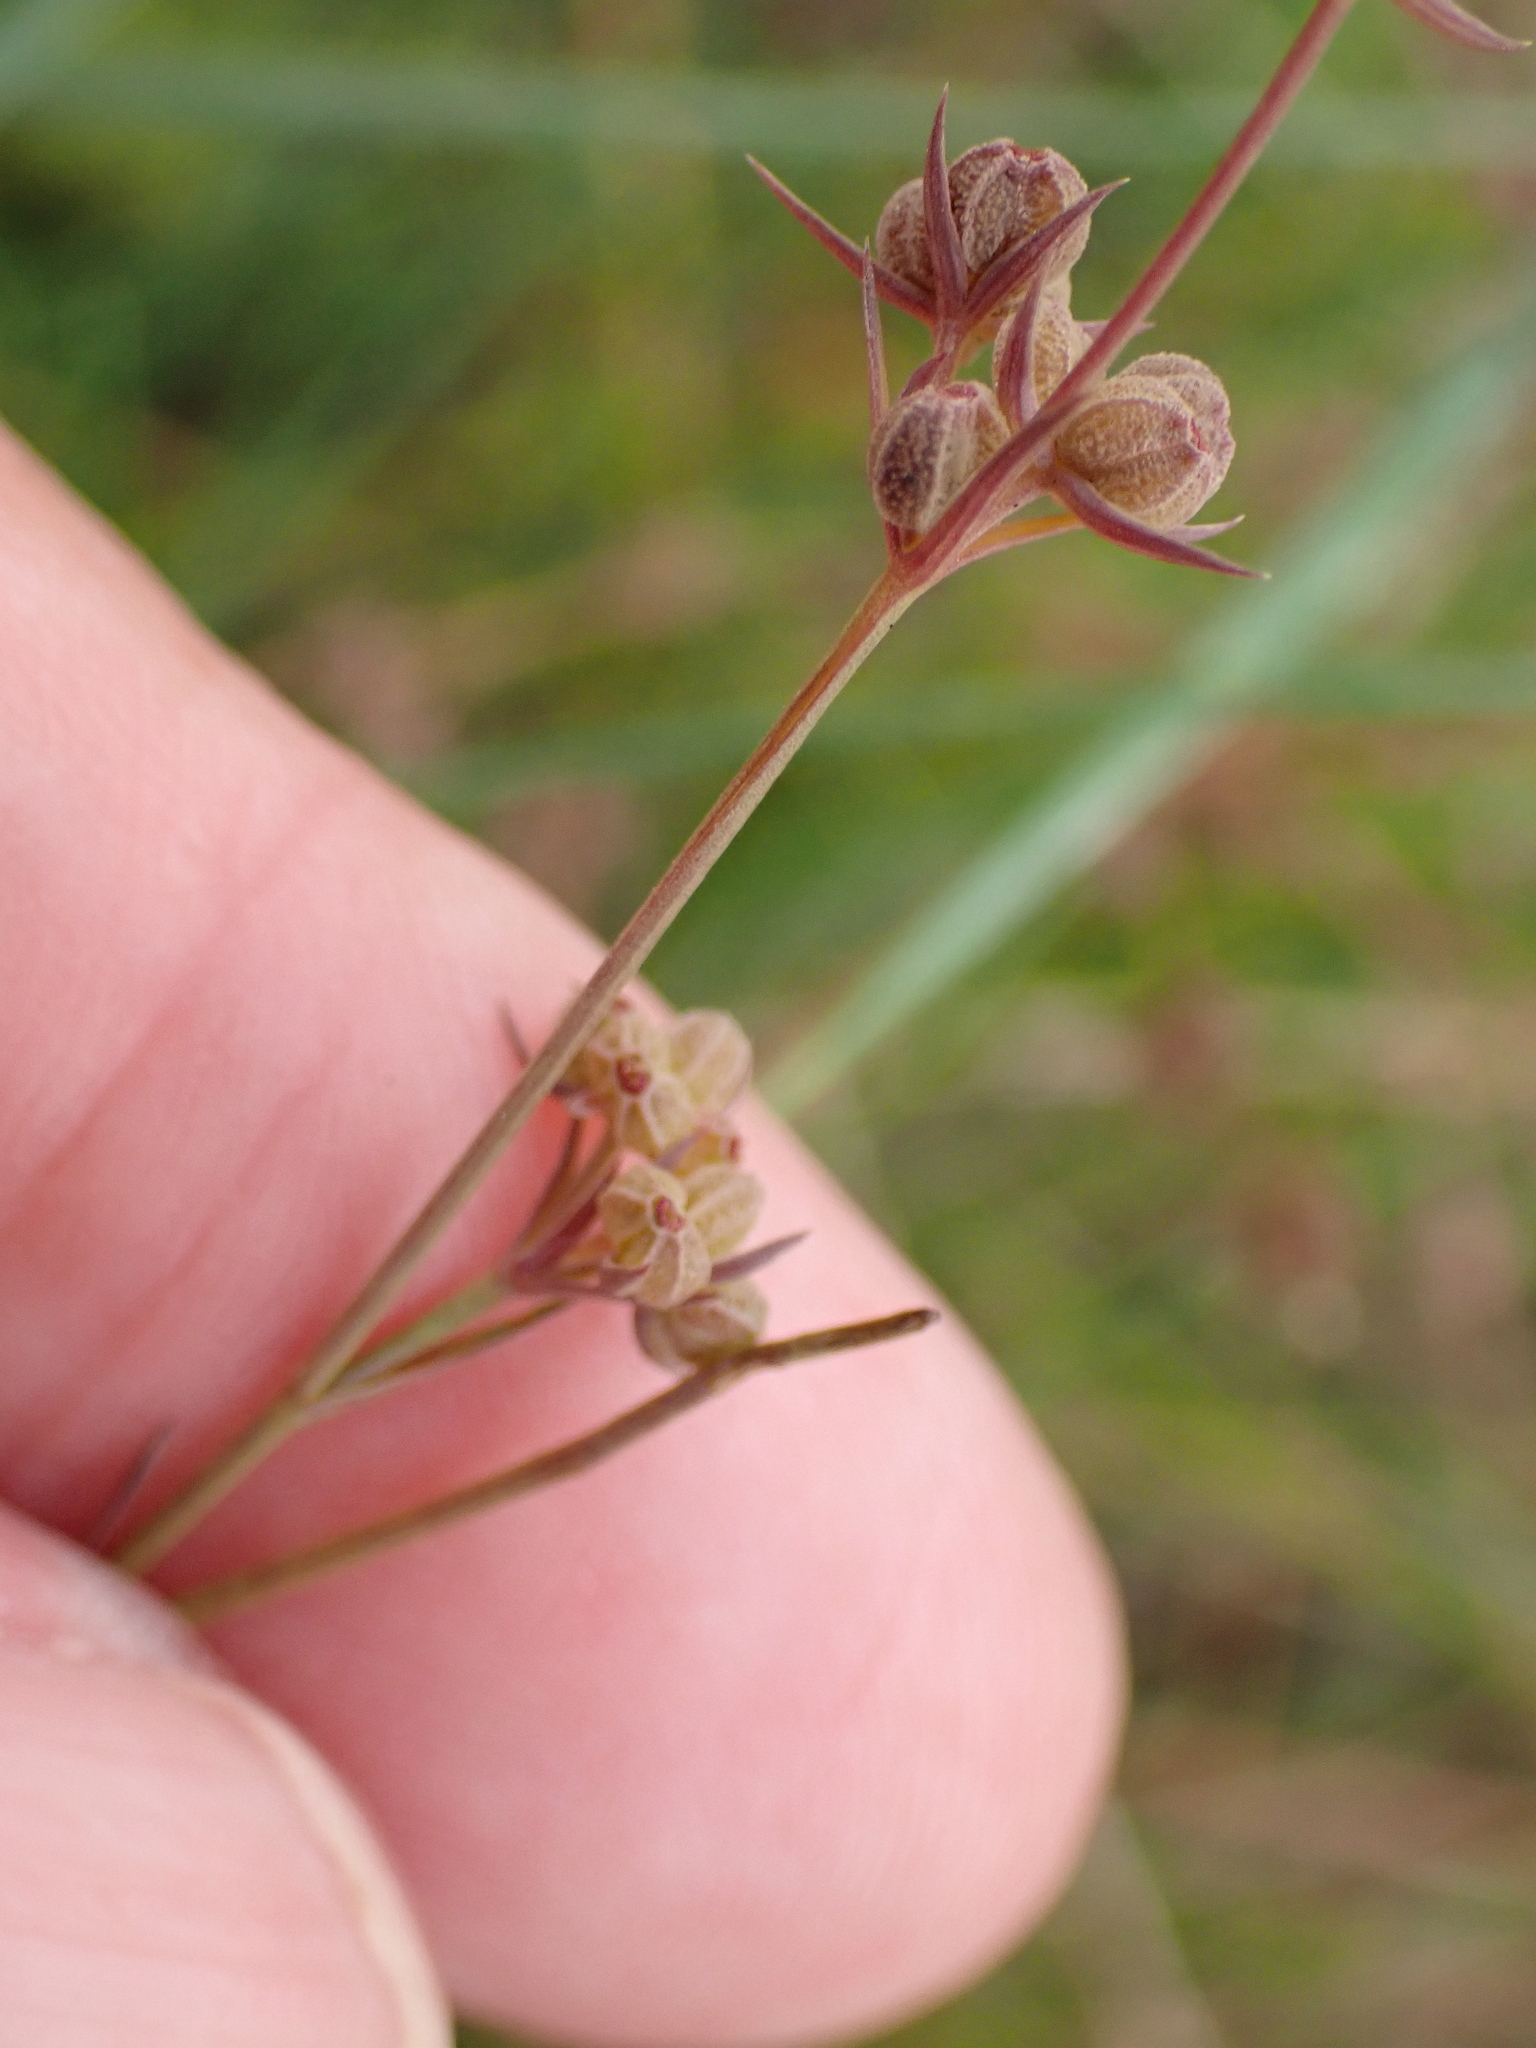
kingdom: Plantae
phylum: Tracheophyta
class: Magnoliopsida
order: Apiales
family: Apiaceae
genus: Bupleurum
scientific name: Bupleurum tenuissimum
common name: Slender hare's-ear
